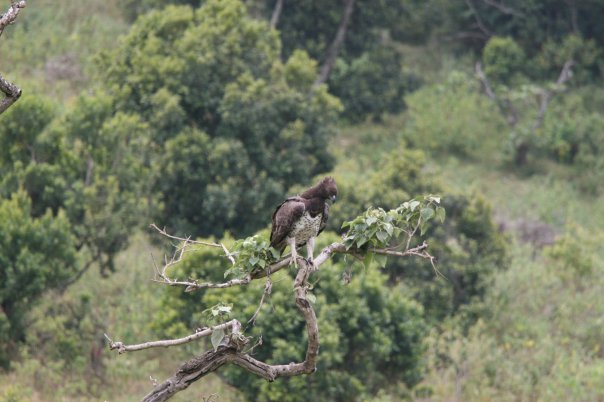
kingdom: Animalia
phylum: Chordata
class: Aves
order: Accipitriformes
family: Accipitridae
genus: Polemaetus
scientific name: Polemaetus bellicosus
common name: Martial eagle
